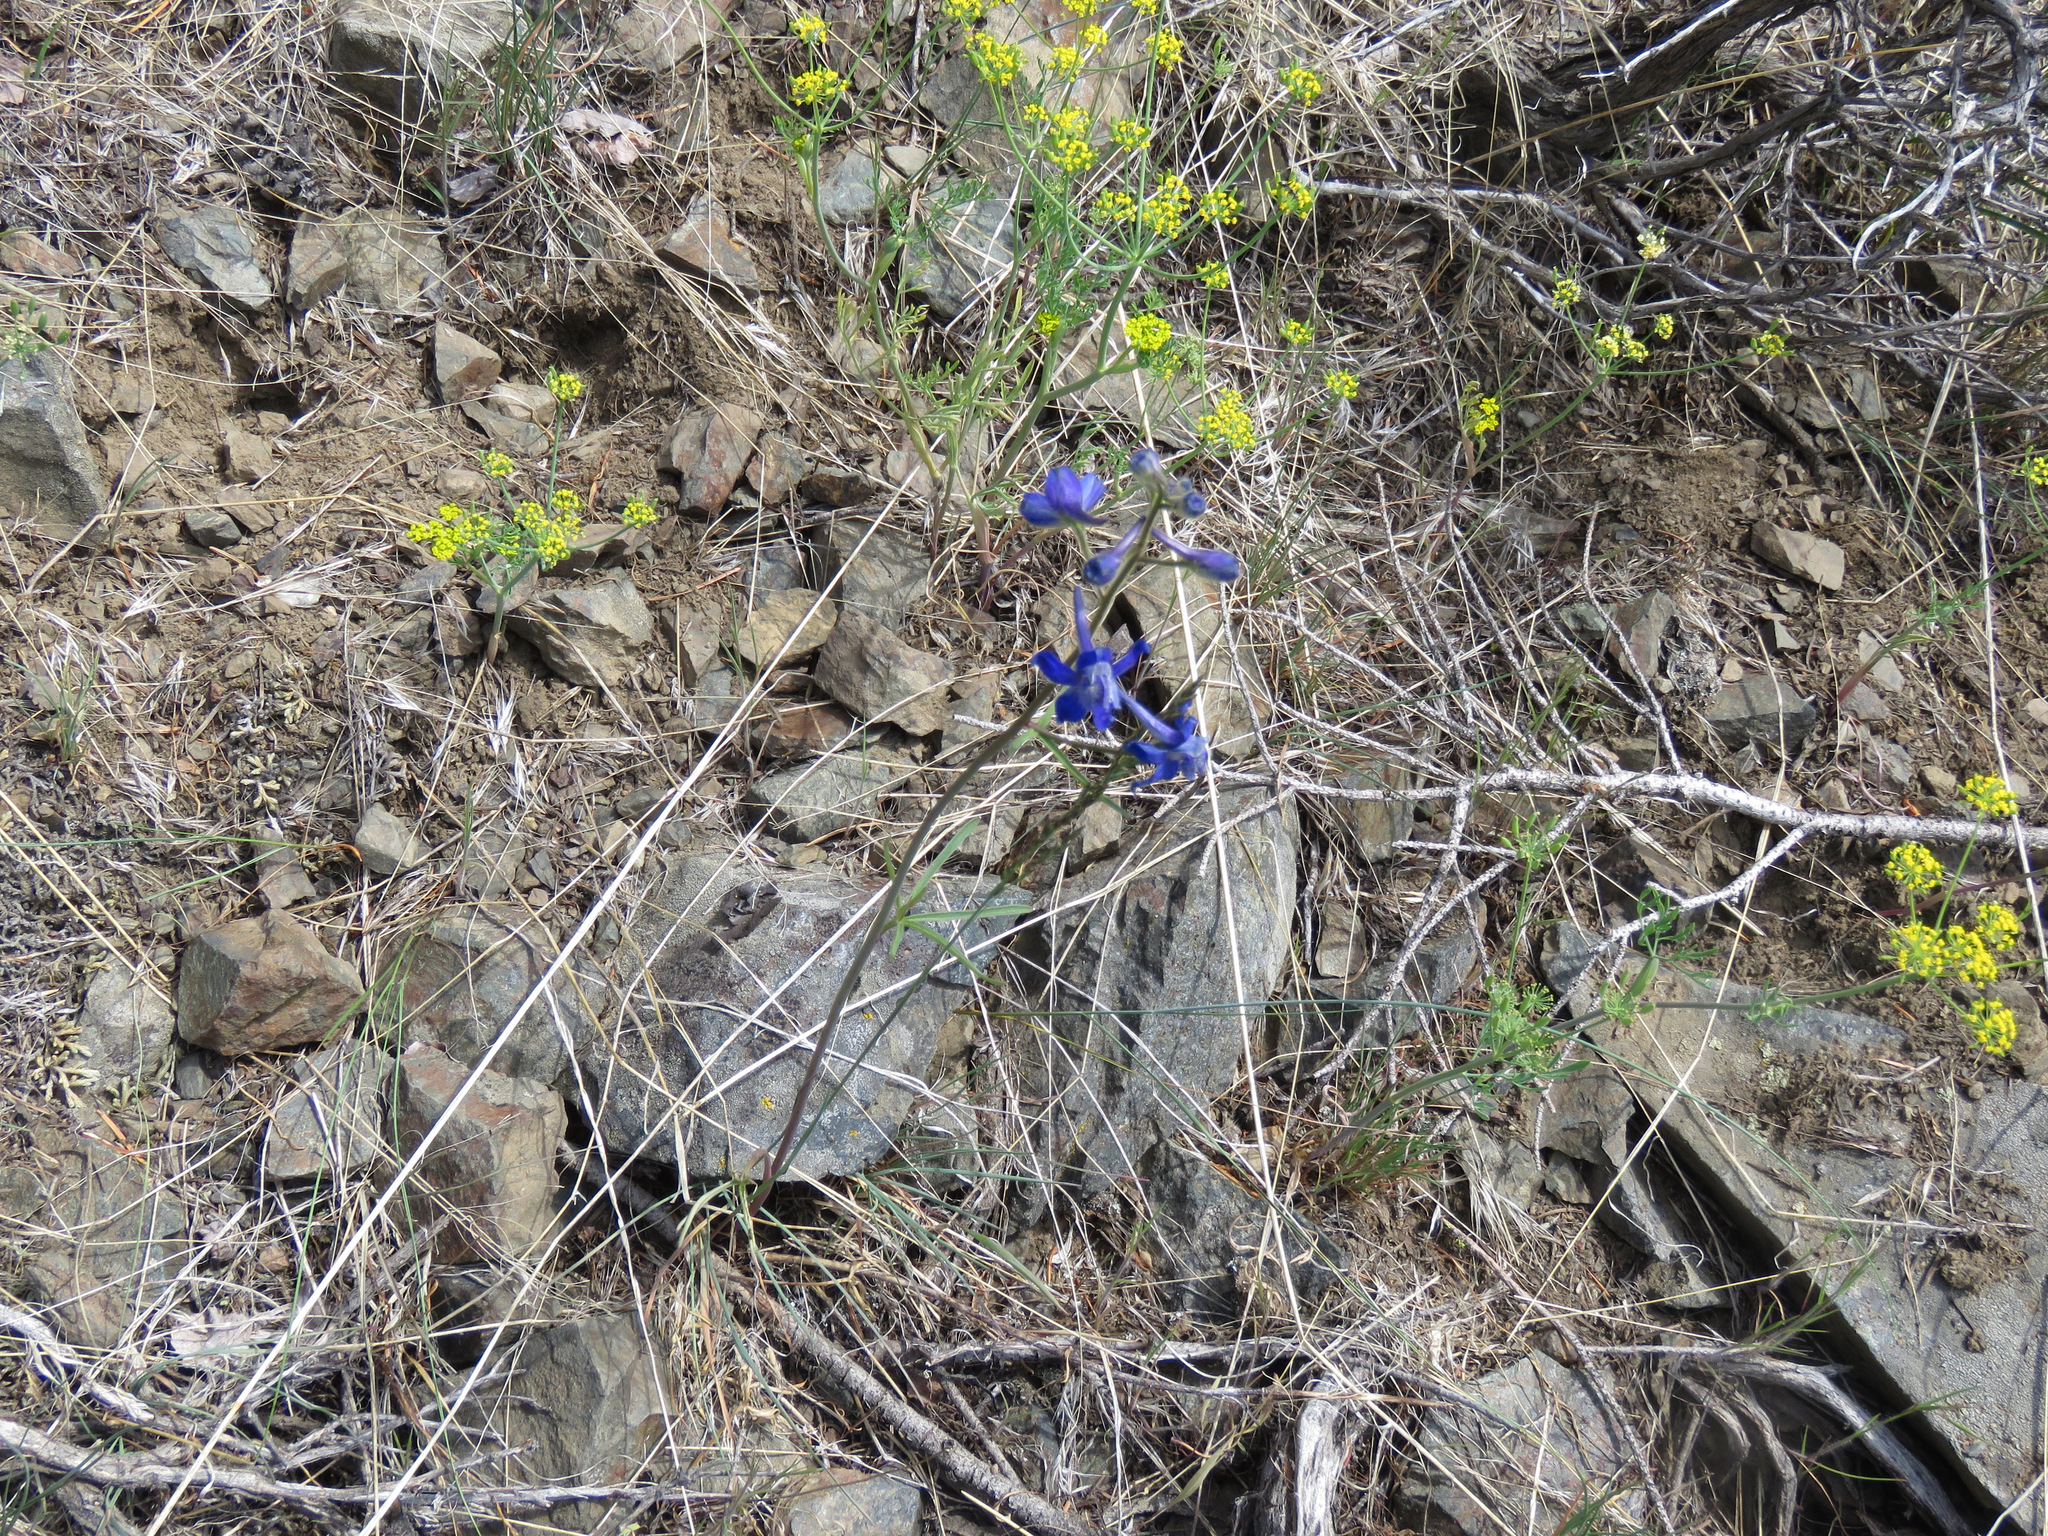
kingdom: Plantae
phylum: Tracheophyta
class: Magnoliopsida
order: Ranunculales
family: Ranunculaceae
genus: Delphinium
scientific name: Delphinium nuttallianum
